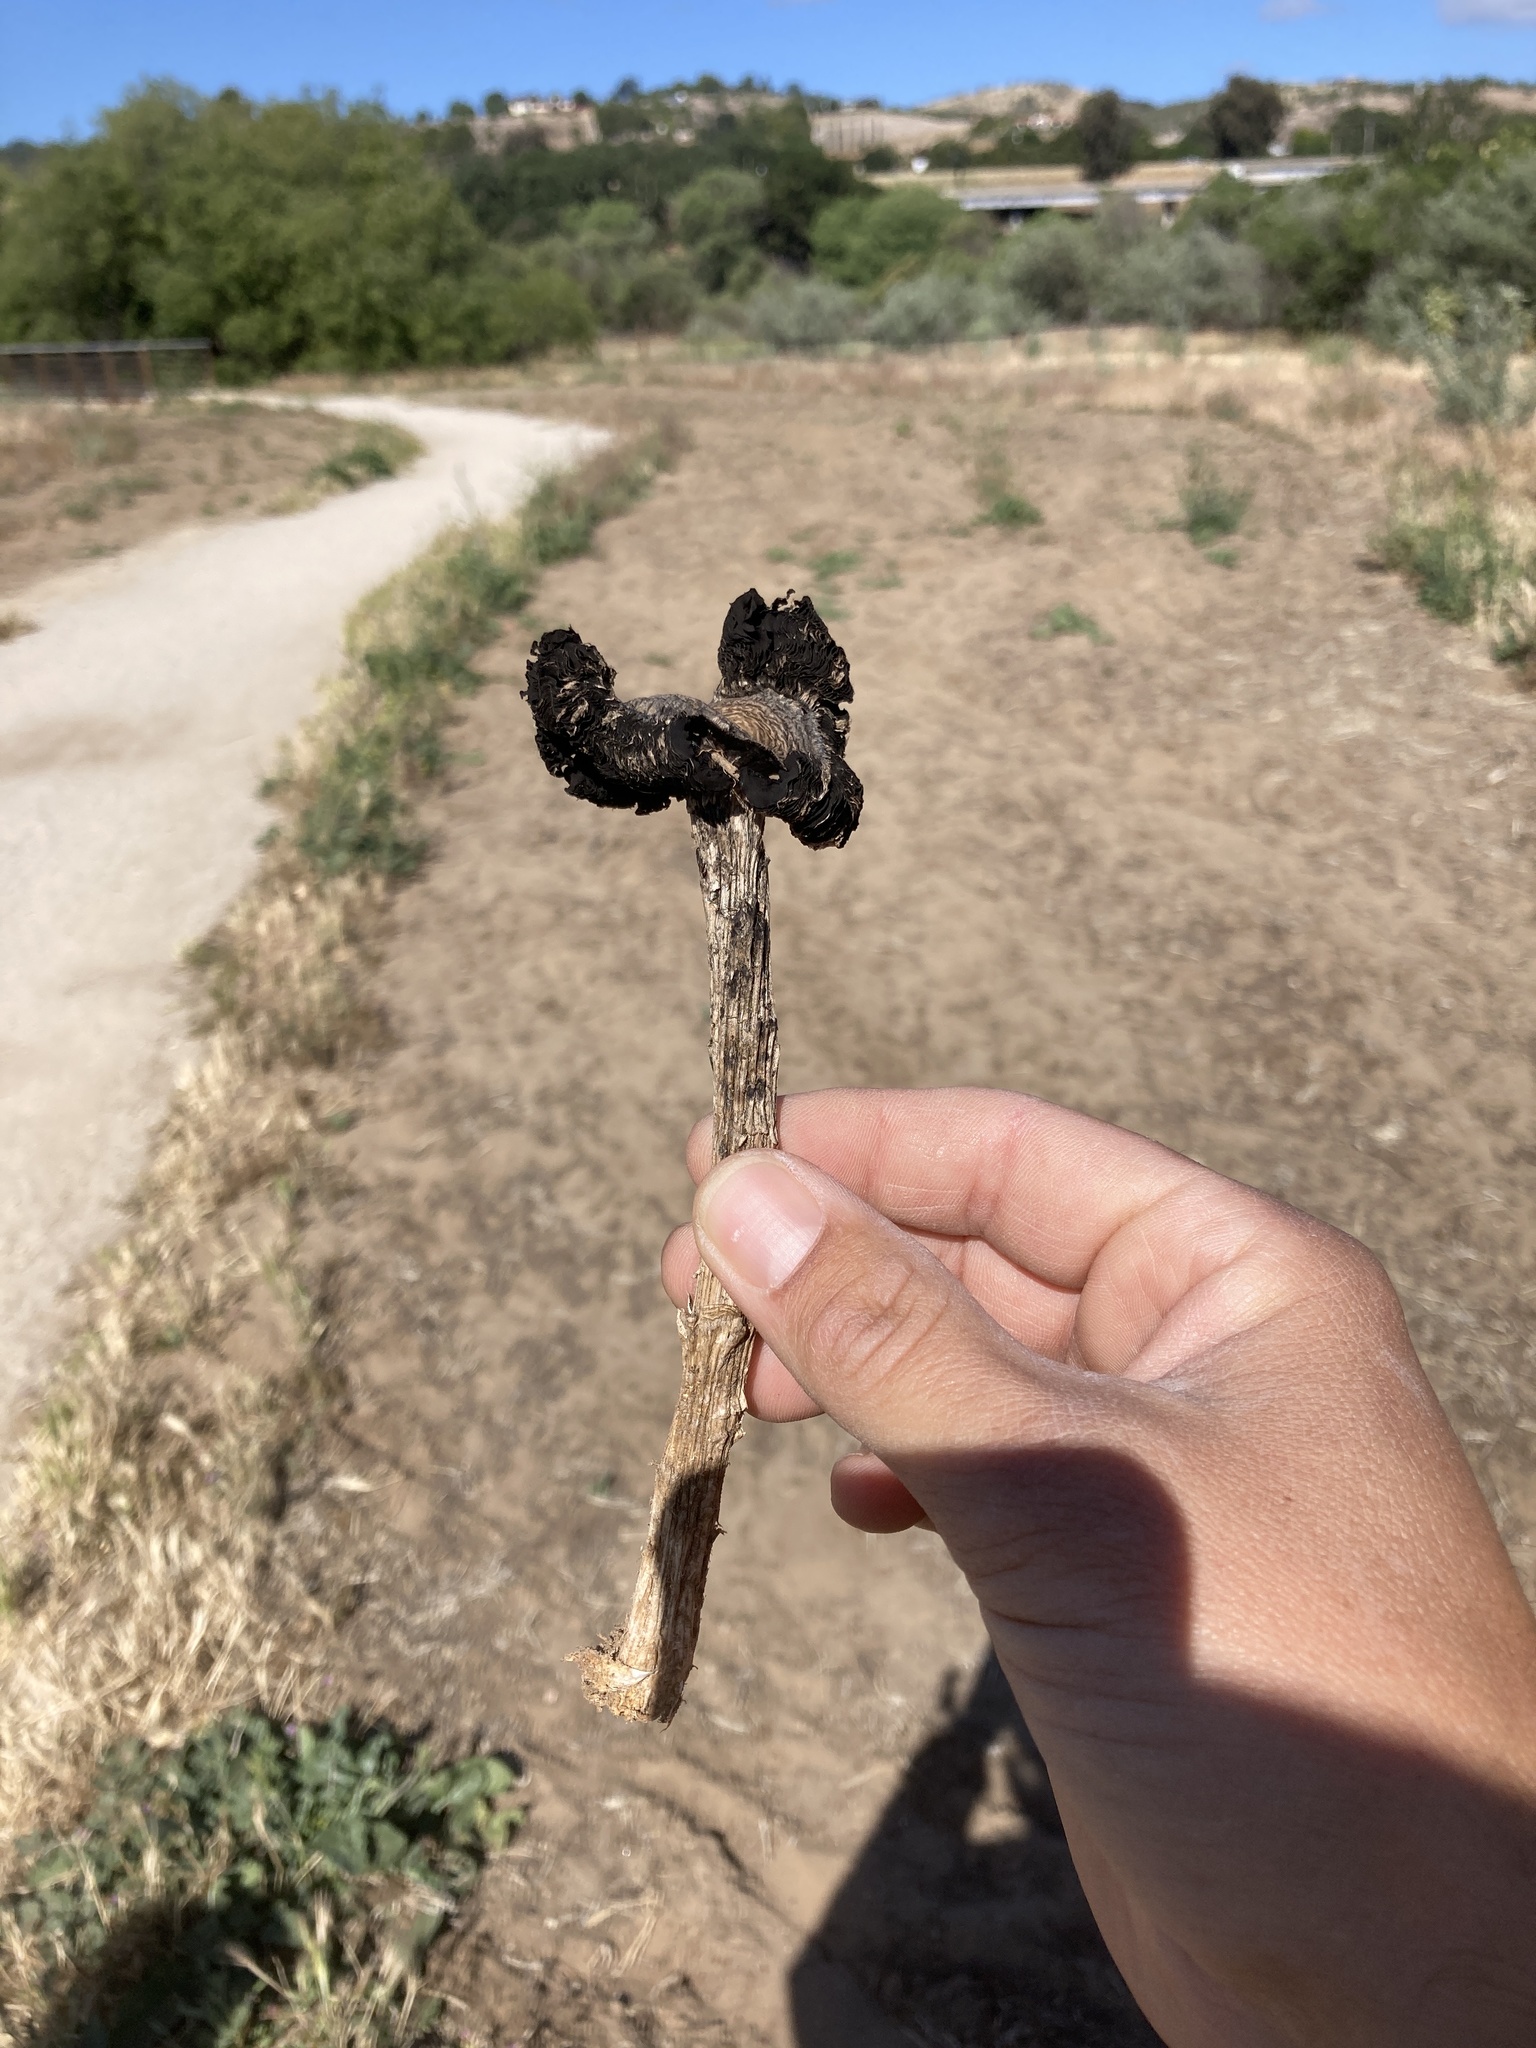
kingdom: Fungi
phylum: Basidiomycota
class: Agaricomycetes
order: Agaricales
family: Agaricaceae
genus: Montagnea
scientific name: Montagnea arenaria
